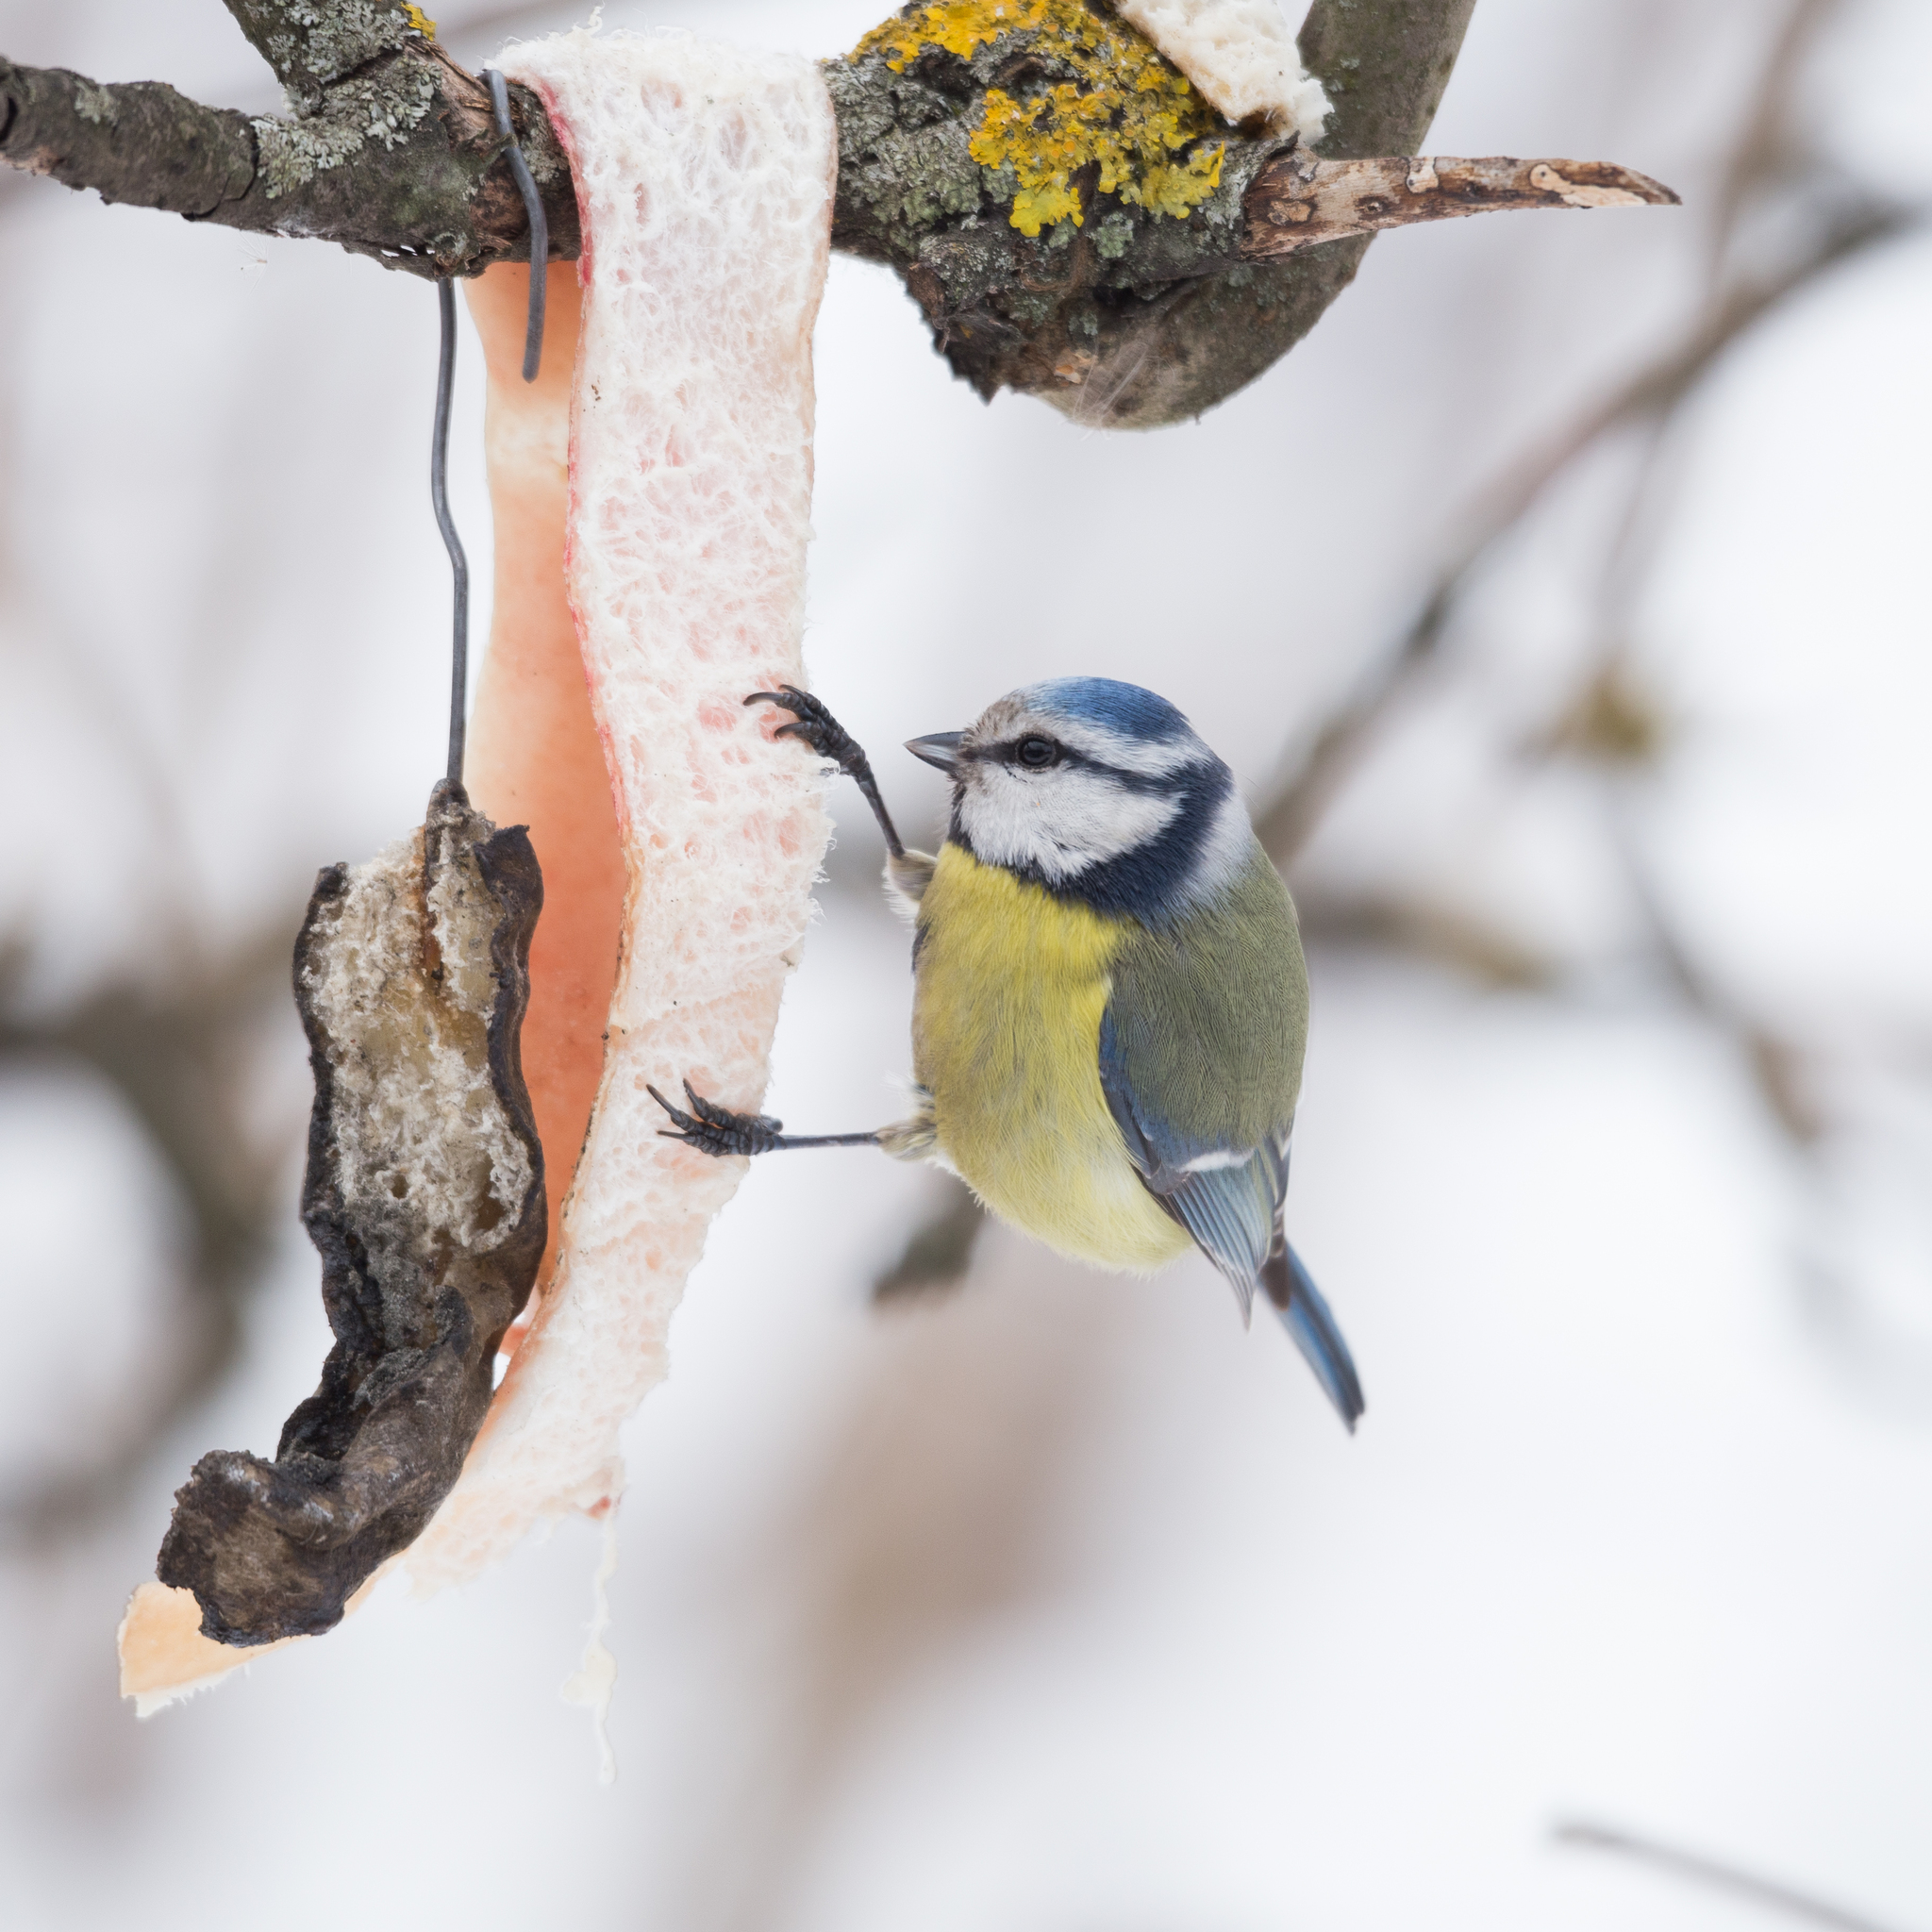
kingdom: Animalia
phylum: Chordata
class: Aves
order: Passeriformes
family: Paridae
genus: Cyanistes
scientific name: Cyanistes caeruleus
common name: Eurasian blue tit
